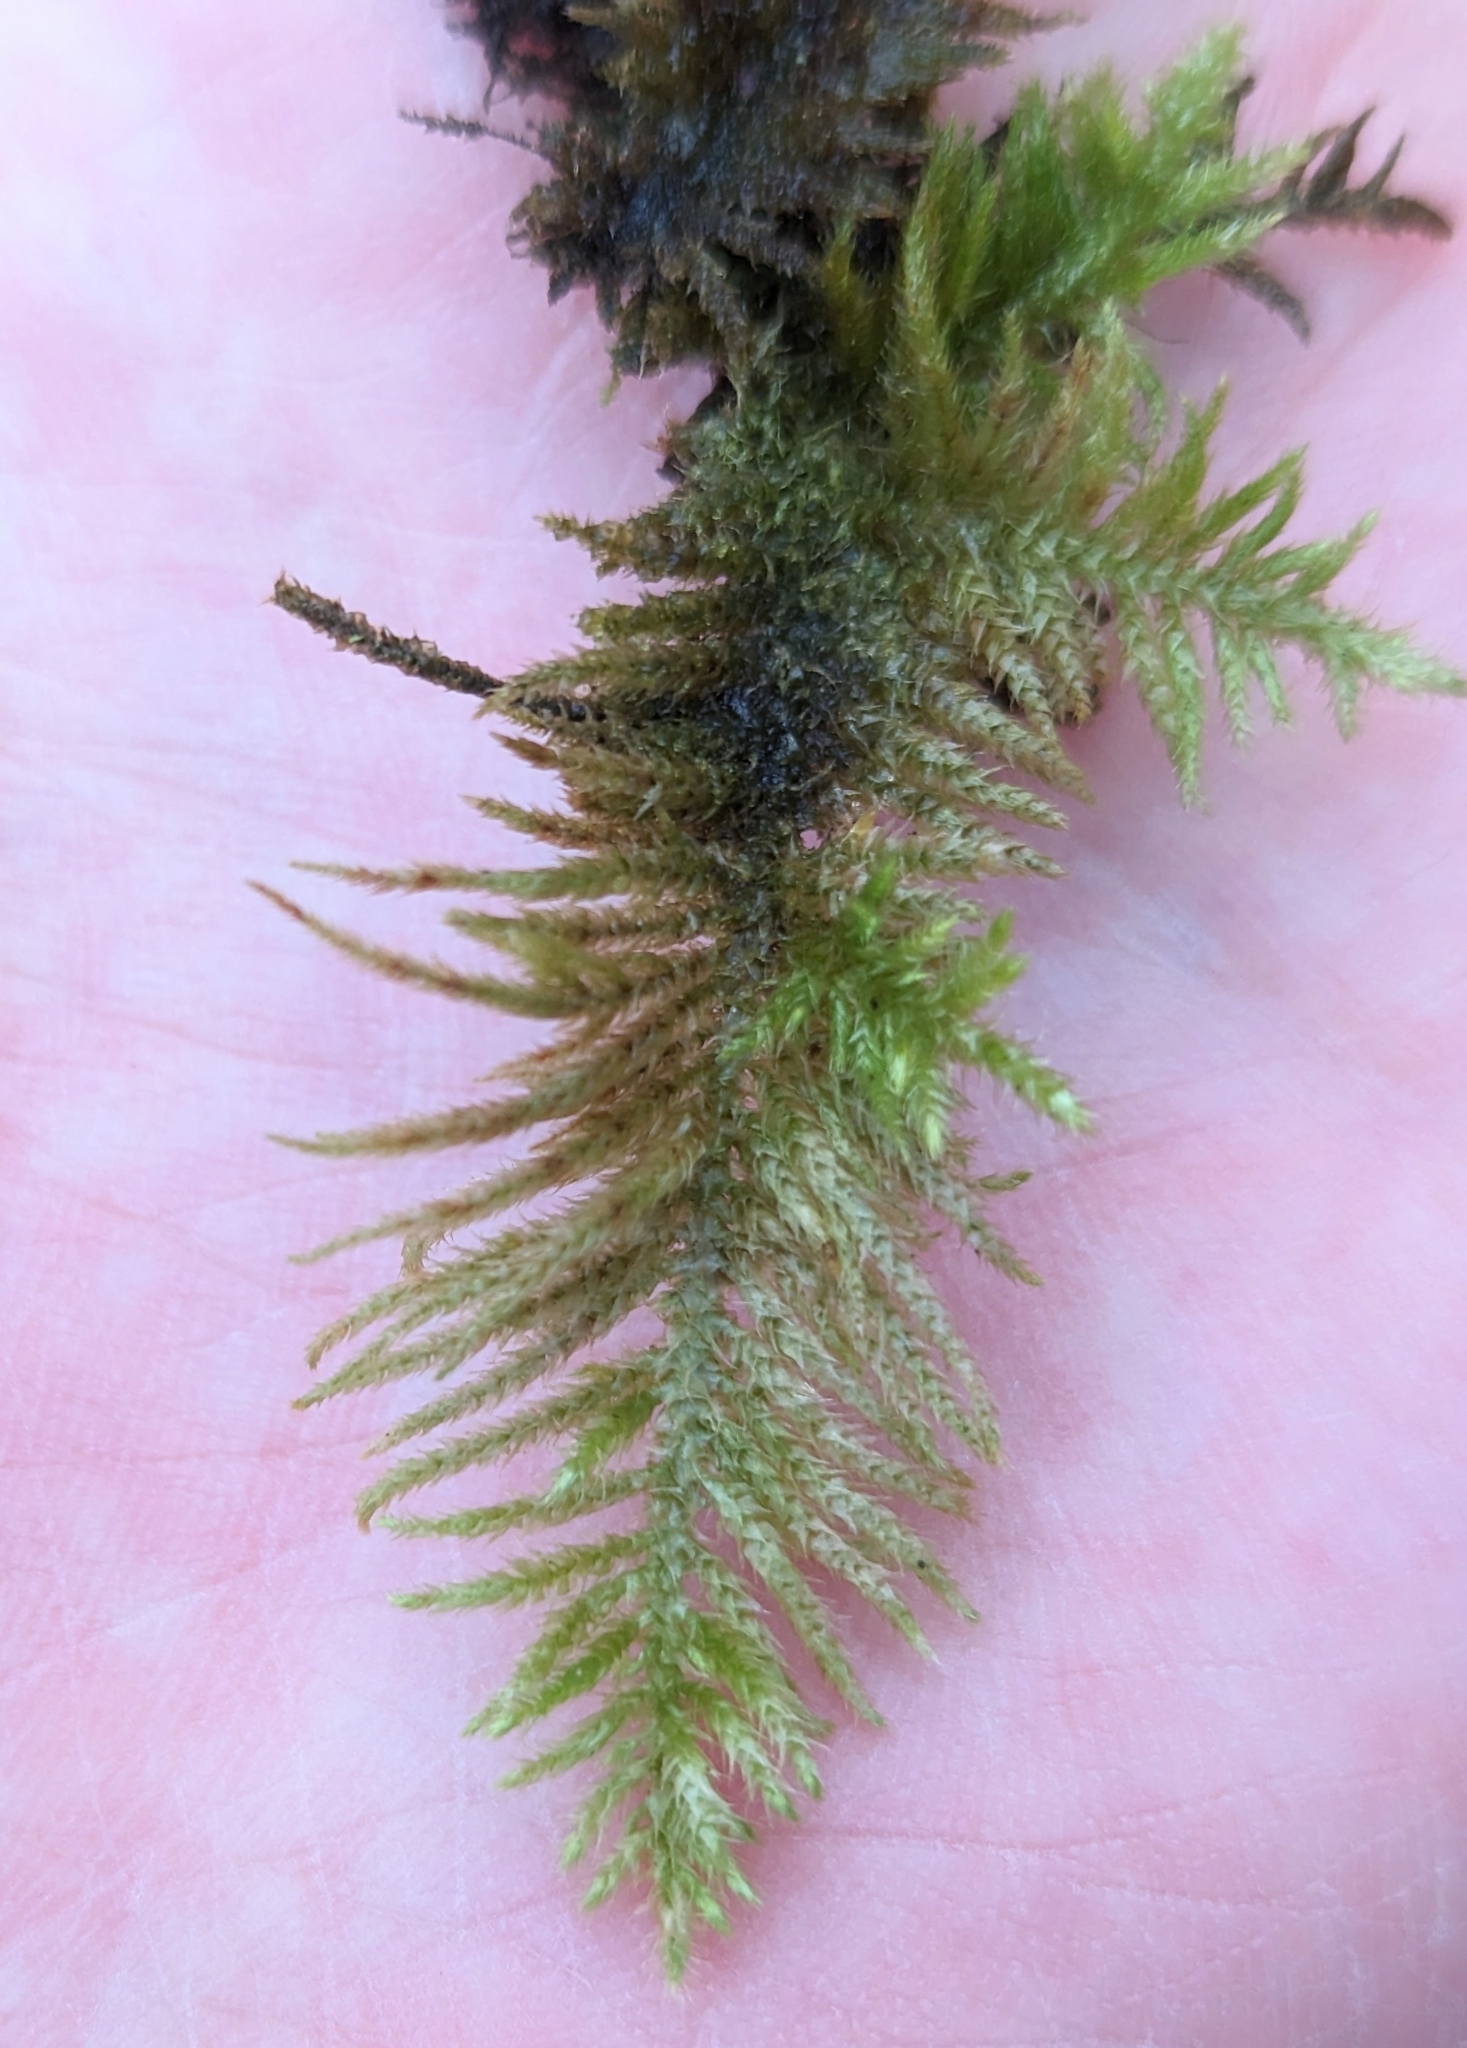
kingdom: Plantae
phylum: Bryophyta
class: Bryopsida
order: Hypnales
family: Brachytheciaceae
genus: Kindbergia
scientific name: Kindbergia oregana
